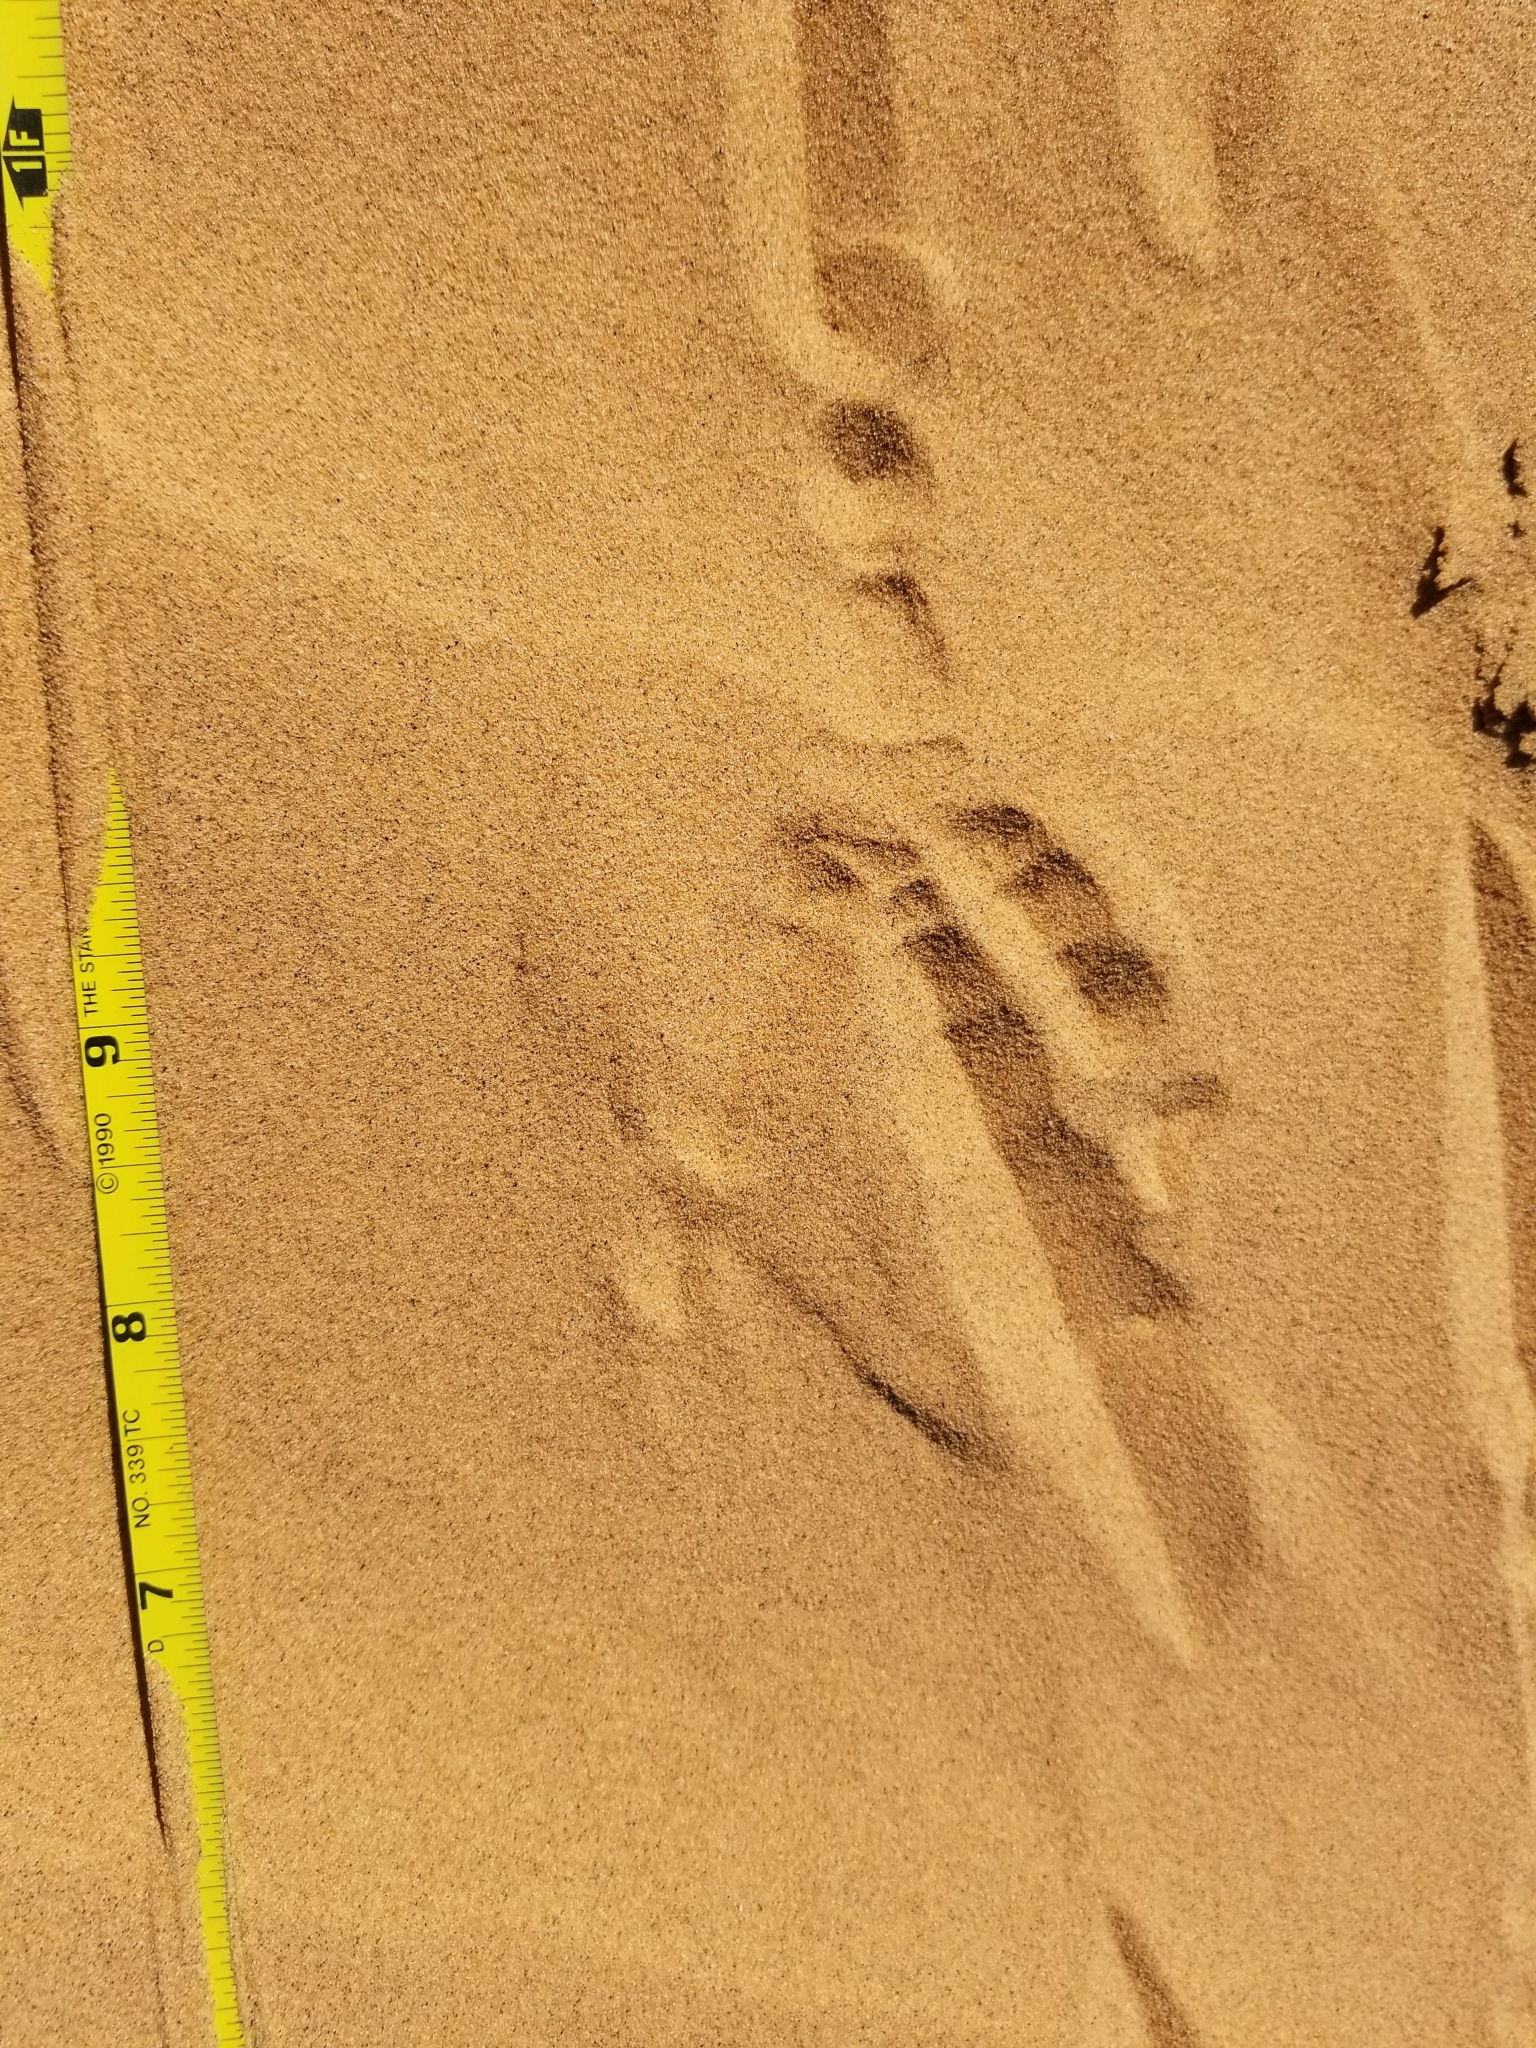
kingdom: Animalia
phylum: Chordata
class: Aves
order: Passeriformes
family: Corvidae
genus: Corvus
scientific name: Corvus corax
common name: Common raven
